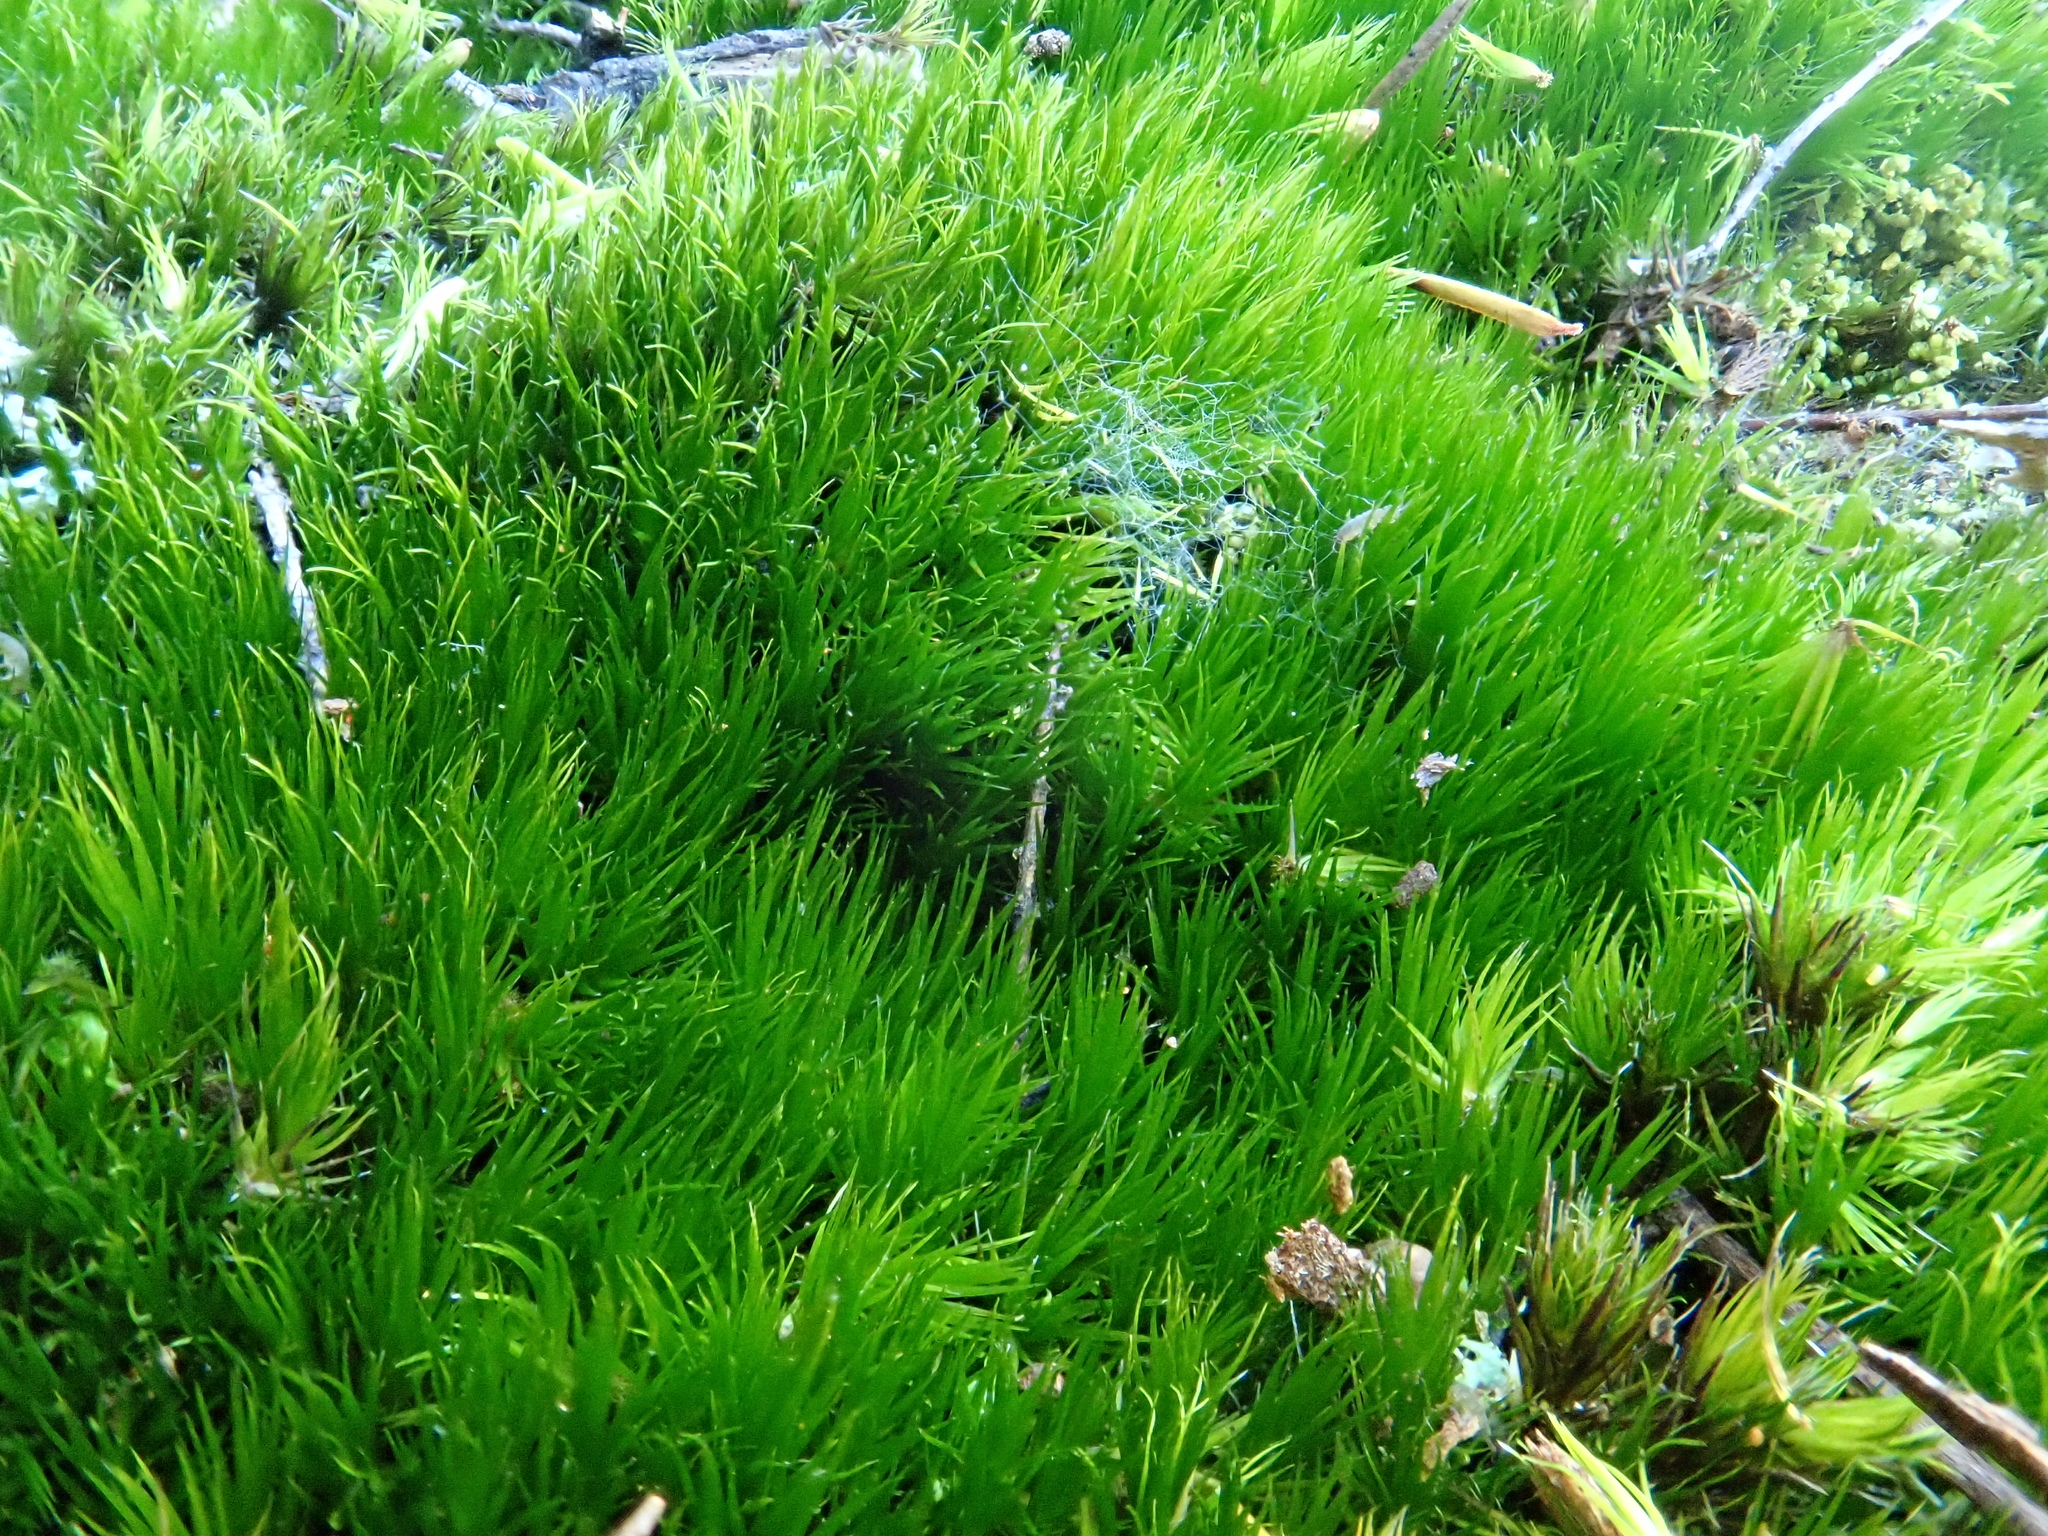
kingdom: Plantae
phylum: Bryophyta
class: Bryopsida
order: Dicranales
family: Leucobryaceae
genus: Campylopus
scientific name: Campylopus pilifer
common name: Campylopus moss
